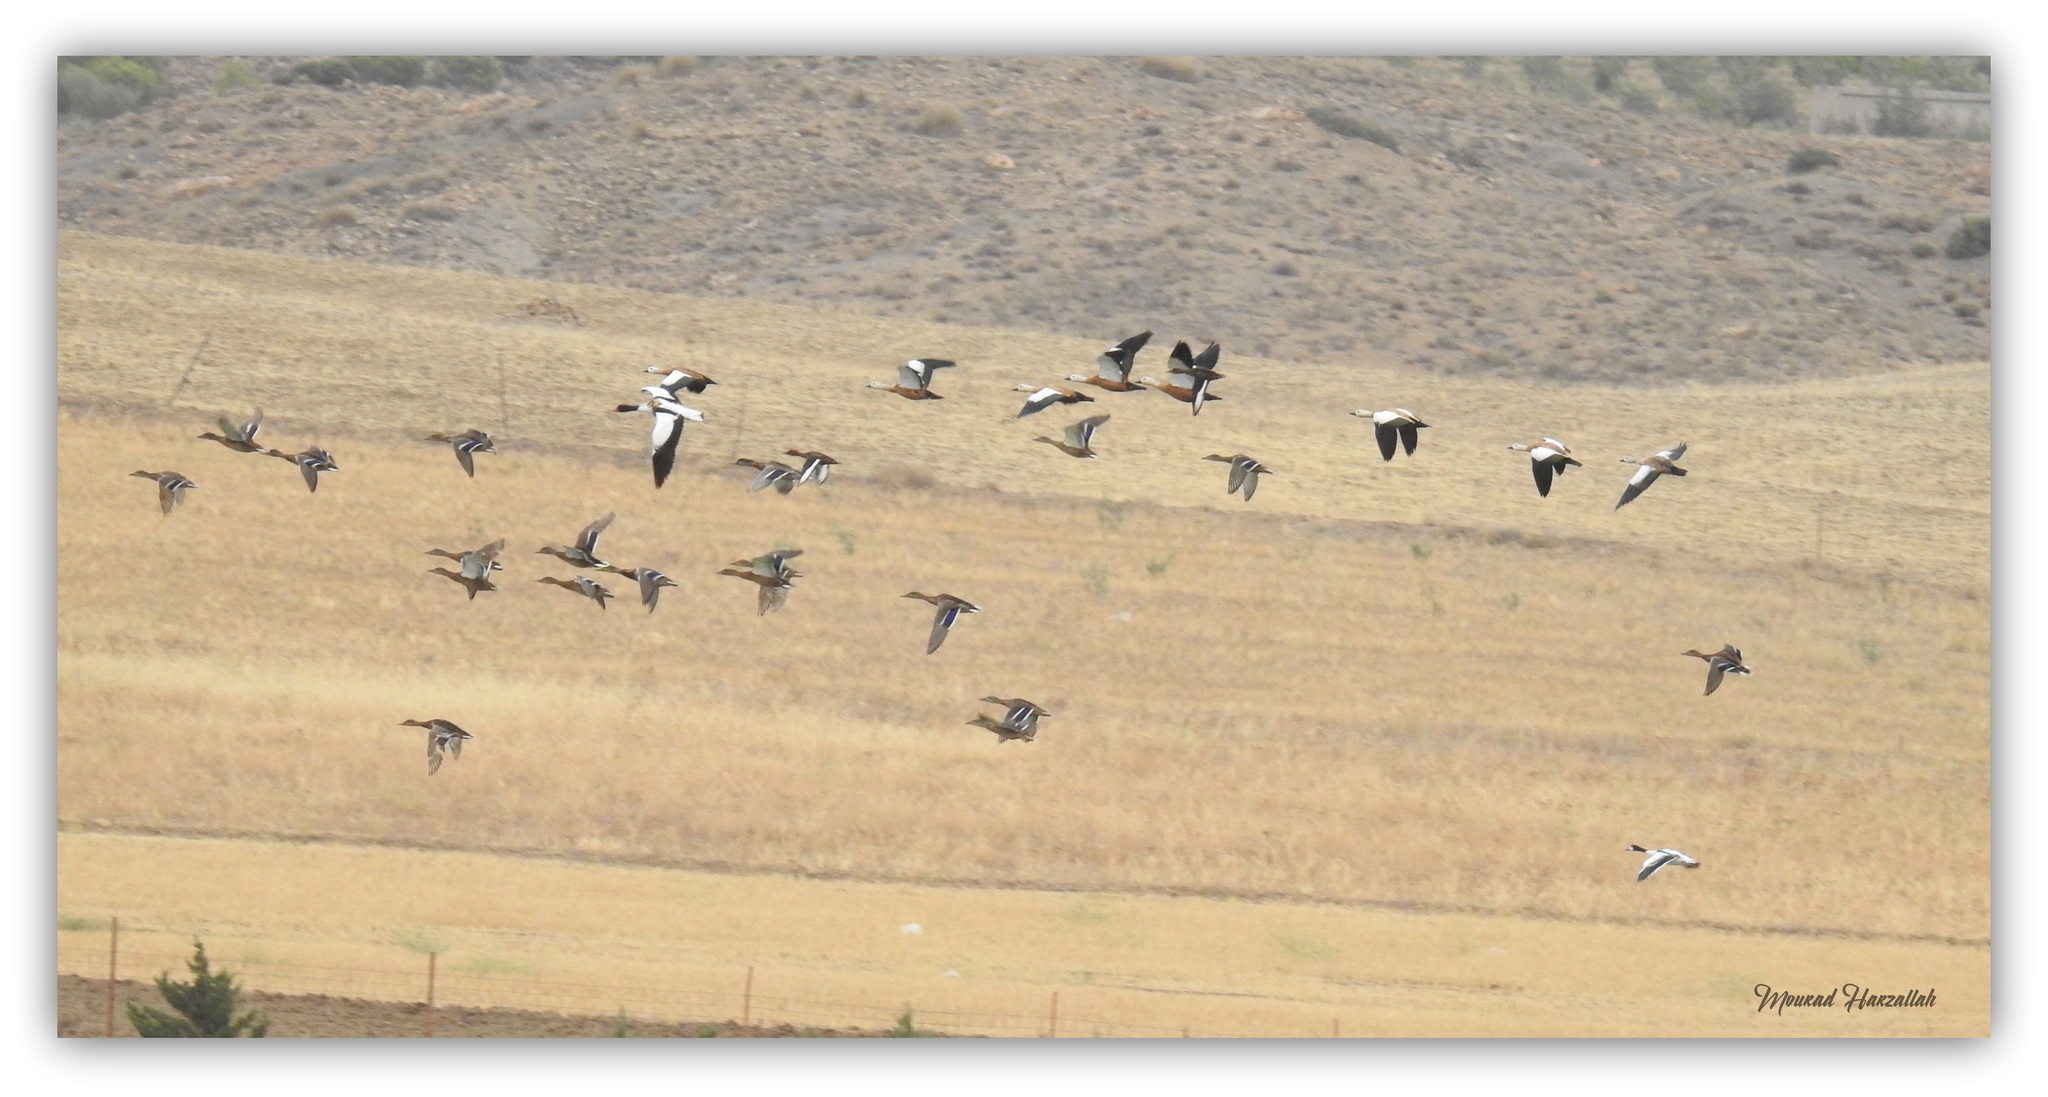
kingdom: Animalia
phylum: Chordata
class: Aves
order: Anseriformes
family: Anatidae
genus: Tadorna
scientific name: Tadorna ferruginea
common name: Ruddy shelduck
